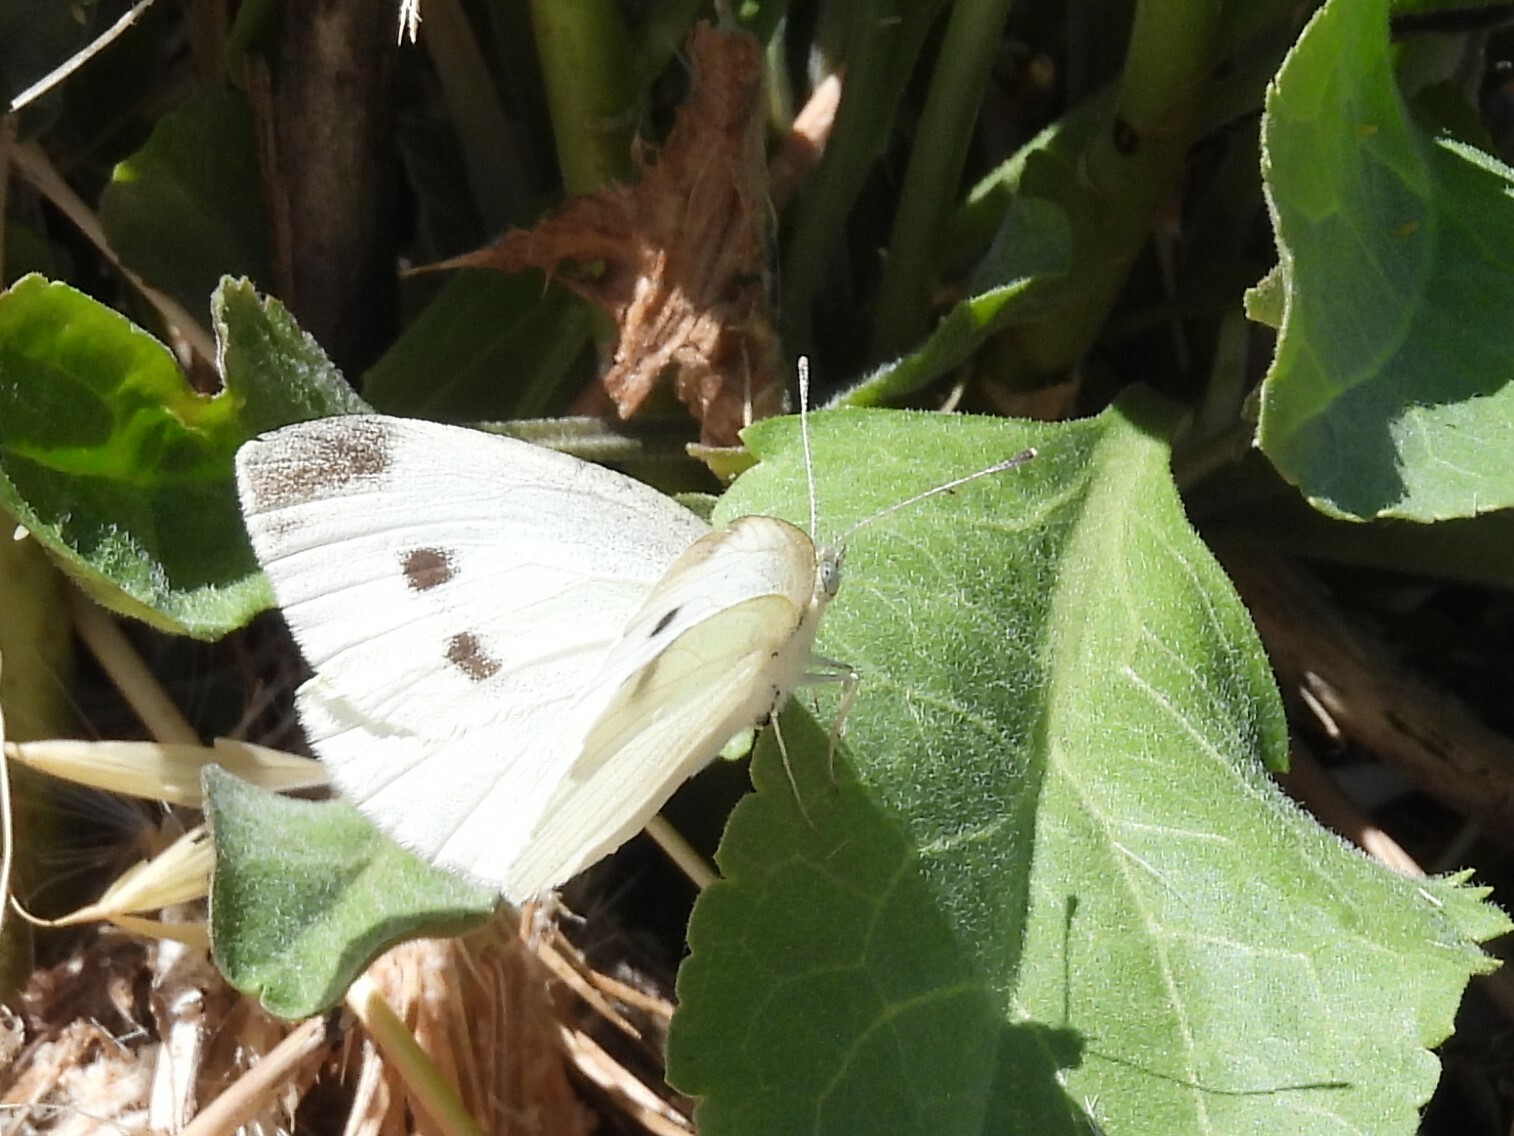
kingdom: Animalia
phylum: Arthropoda
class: Insecta
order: Lepidoptera
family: Pieridae
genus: Pieris
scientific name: Pieris rapae
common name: Small white
